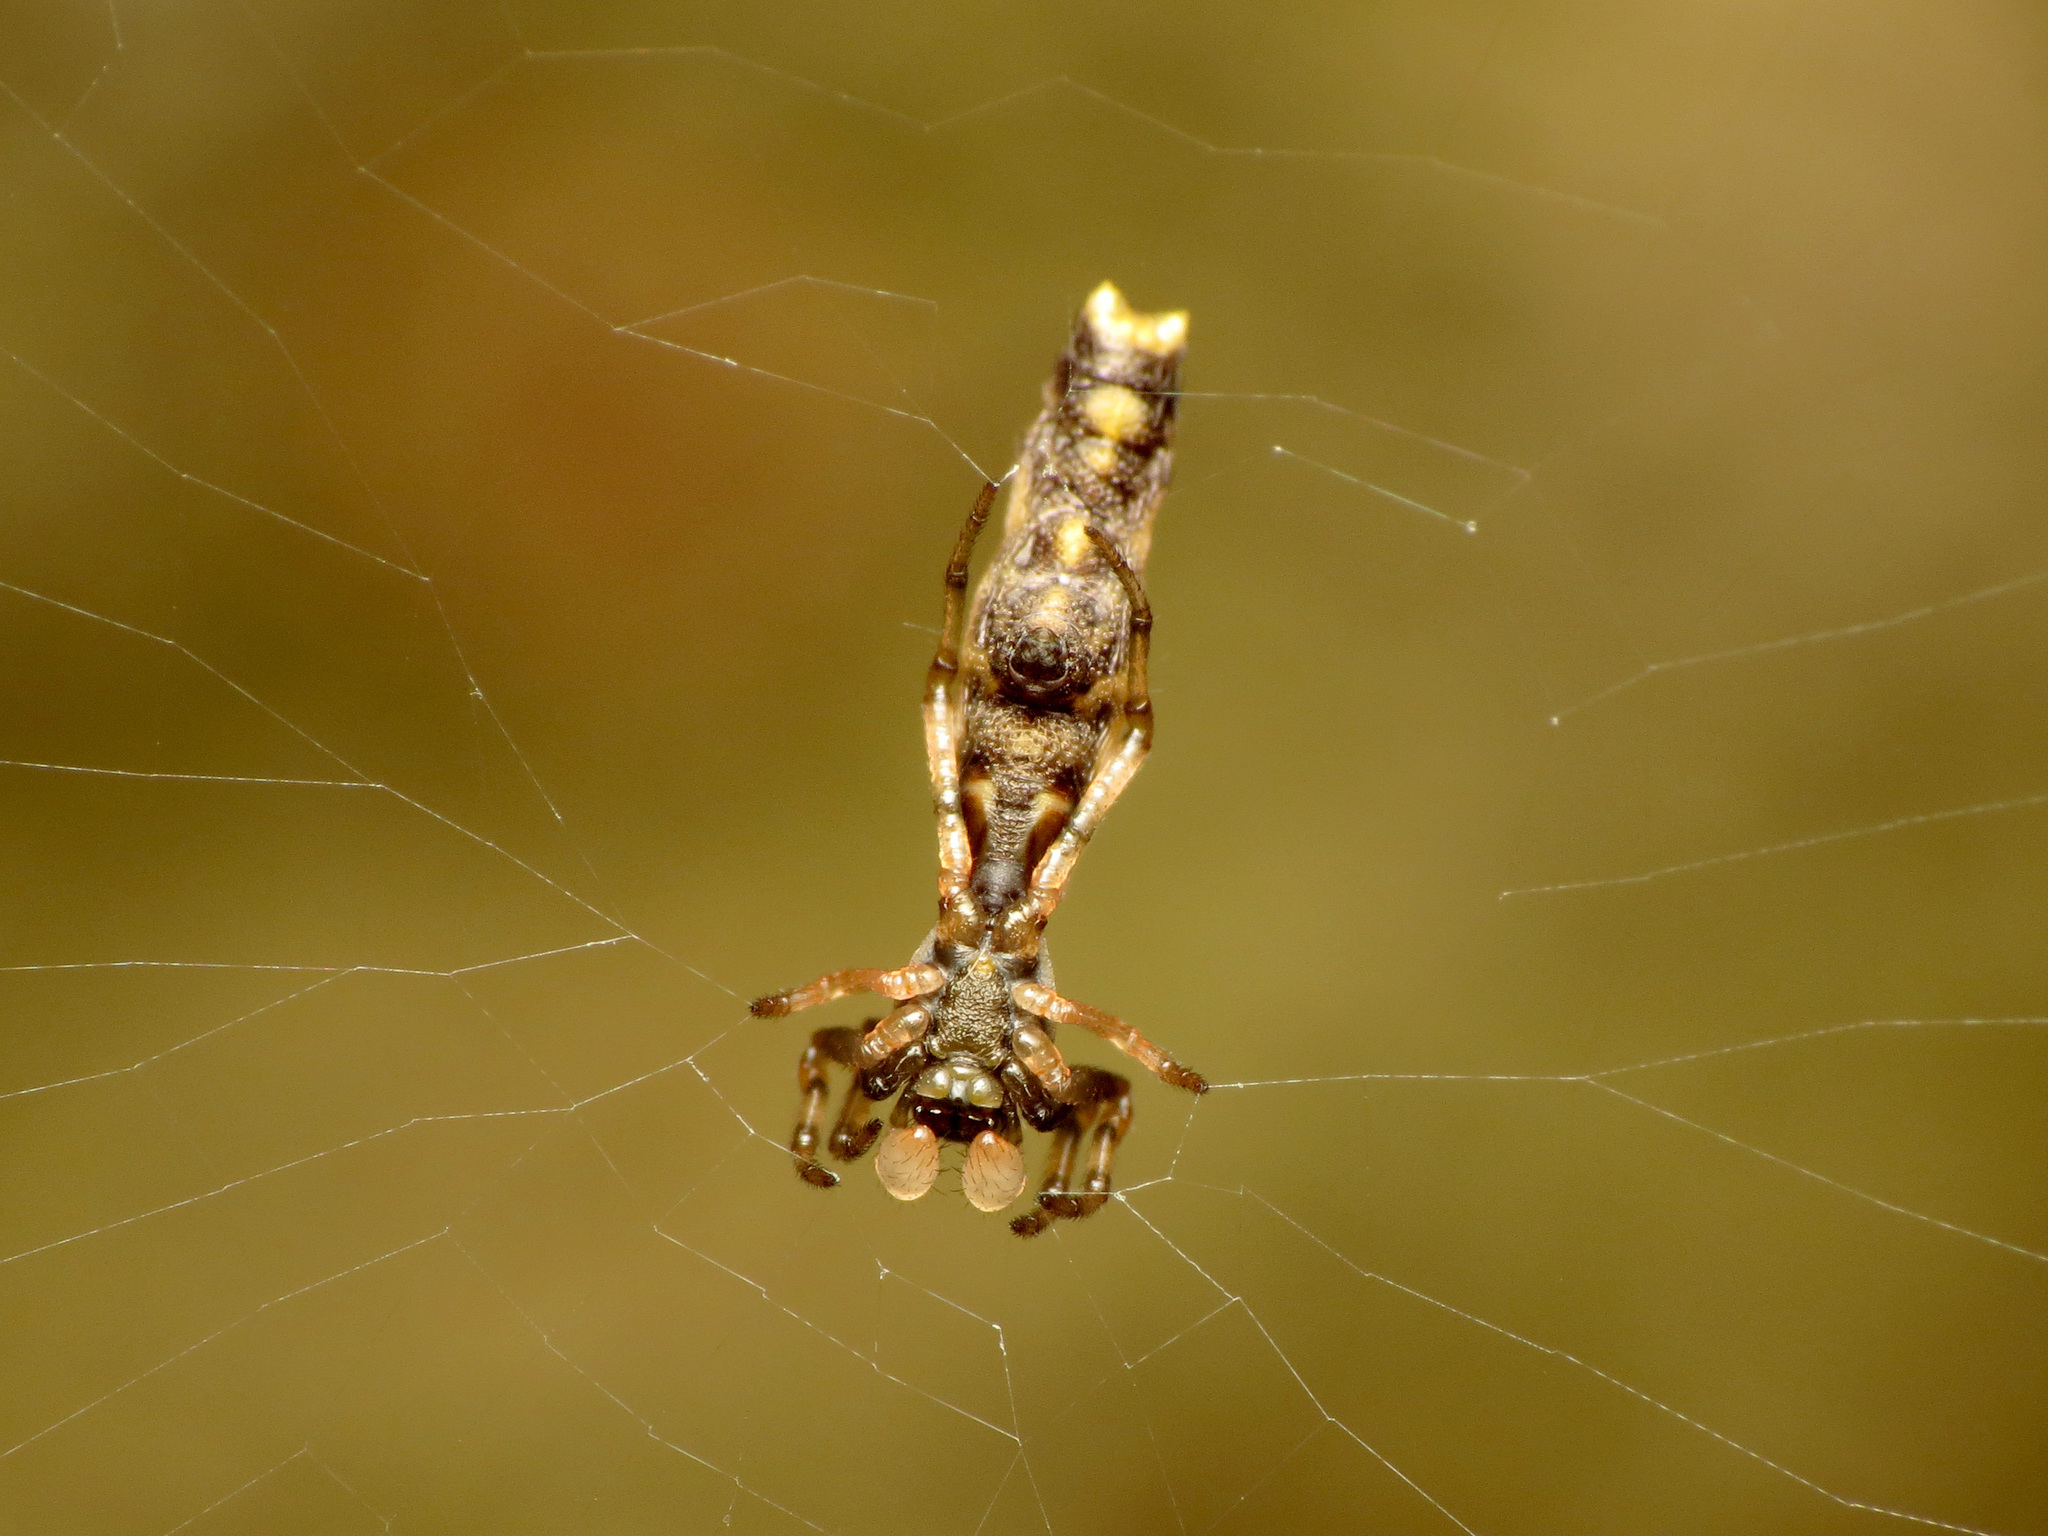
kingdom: Animalia
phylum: Arthropoda
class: Arachnida
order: Araneae
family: Araneidae
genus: Micrathena
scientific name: Micrathena gracilis
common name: Orb weavers
